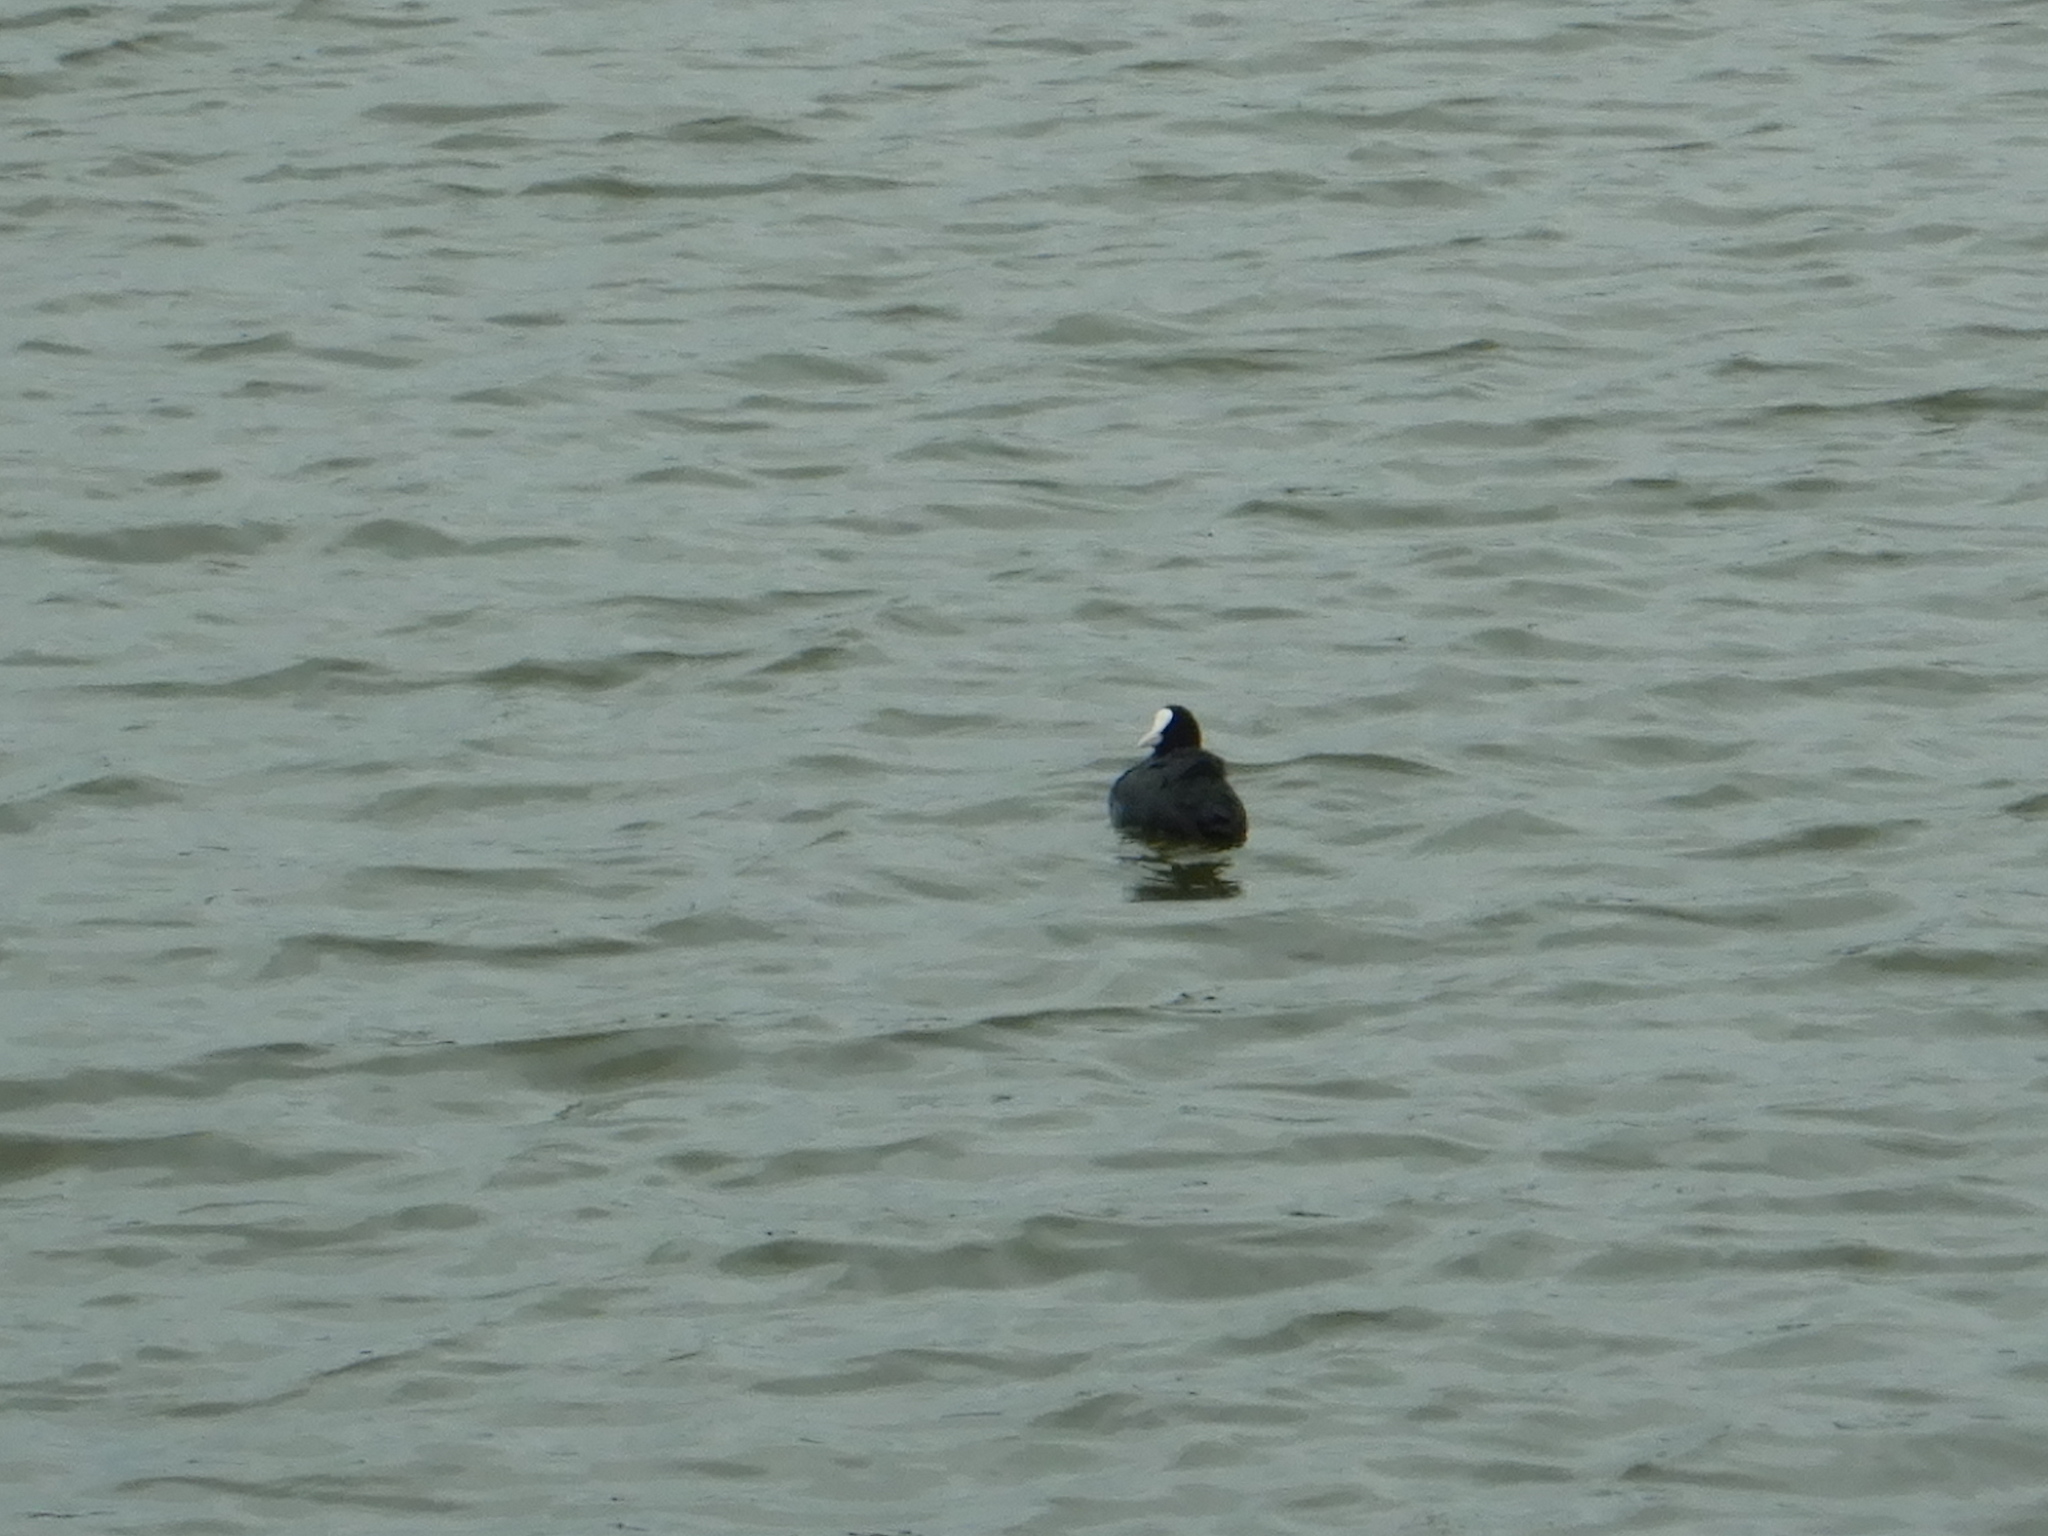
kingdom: Animalia
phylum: Chordata
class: Aves
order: Gruiformes
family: Rallidae
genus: Fulica
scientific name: Fulica atra
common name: Eurasian coot
